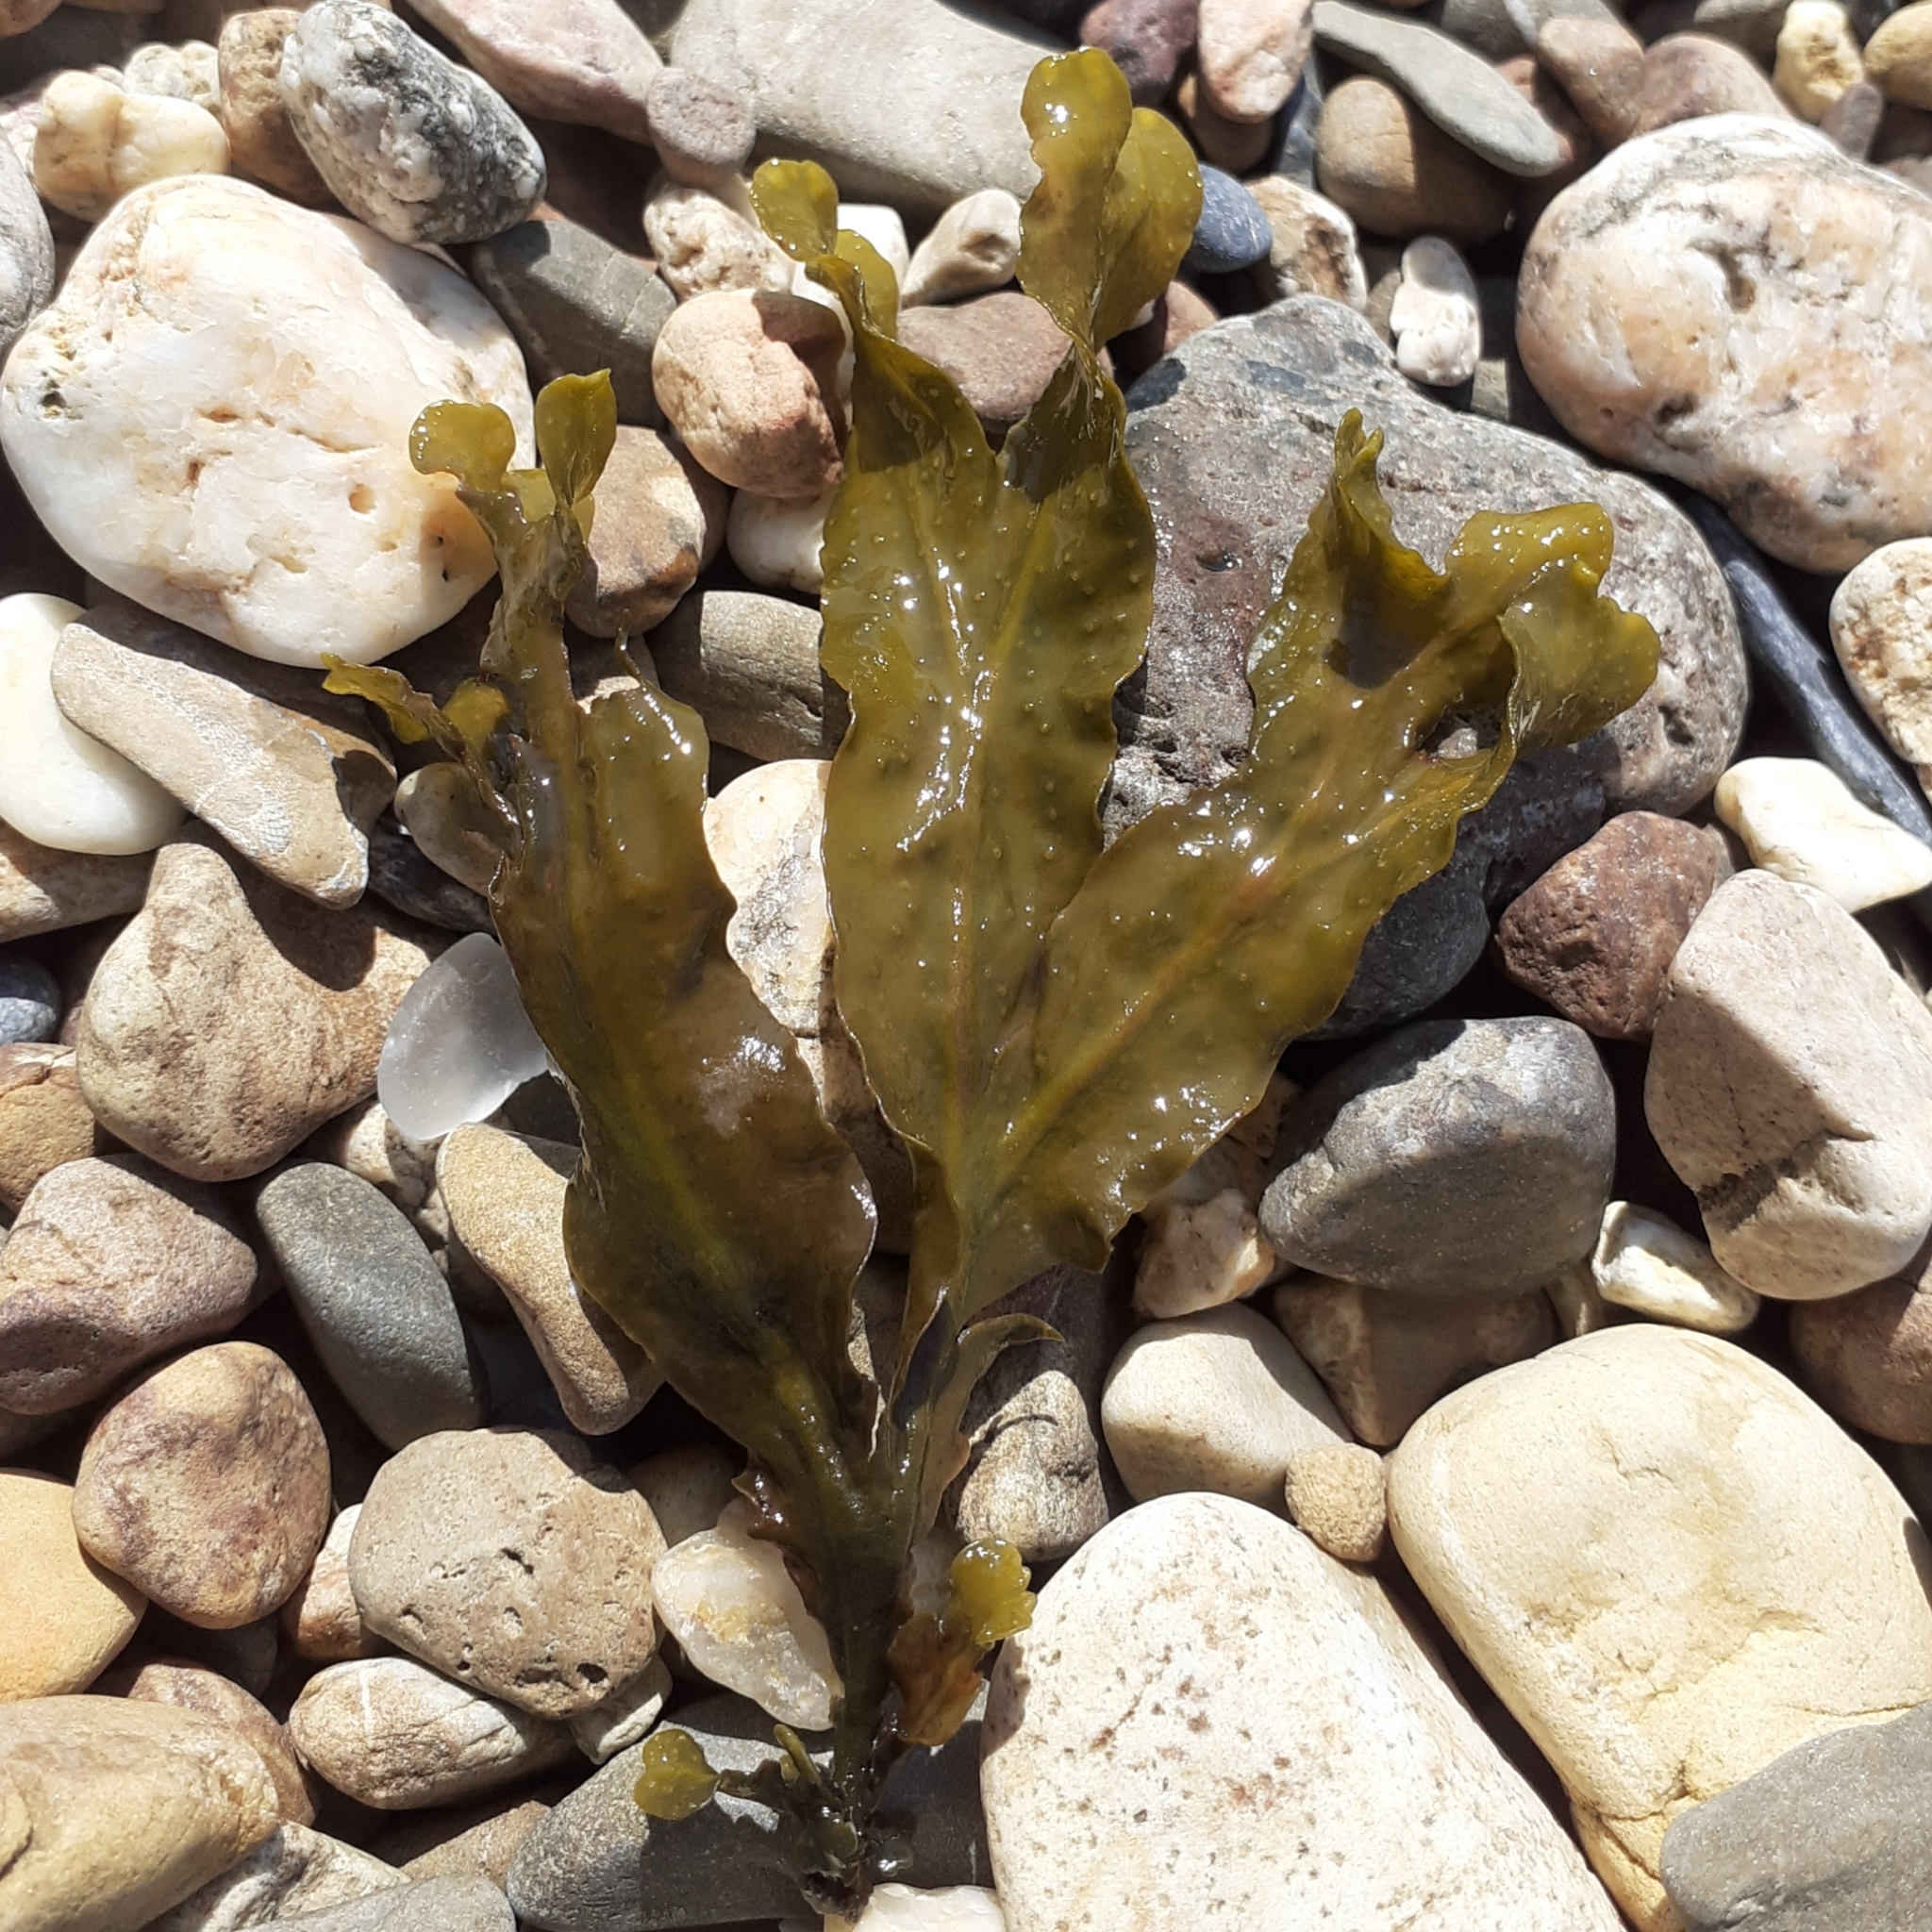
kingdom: Chromista
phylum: Ochrophyta
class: Phaeophyceae
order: Fucales
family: Fucaceae
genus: Fucus
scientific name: Fucus spiralis
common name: Spiral wrack
